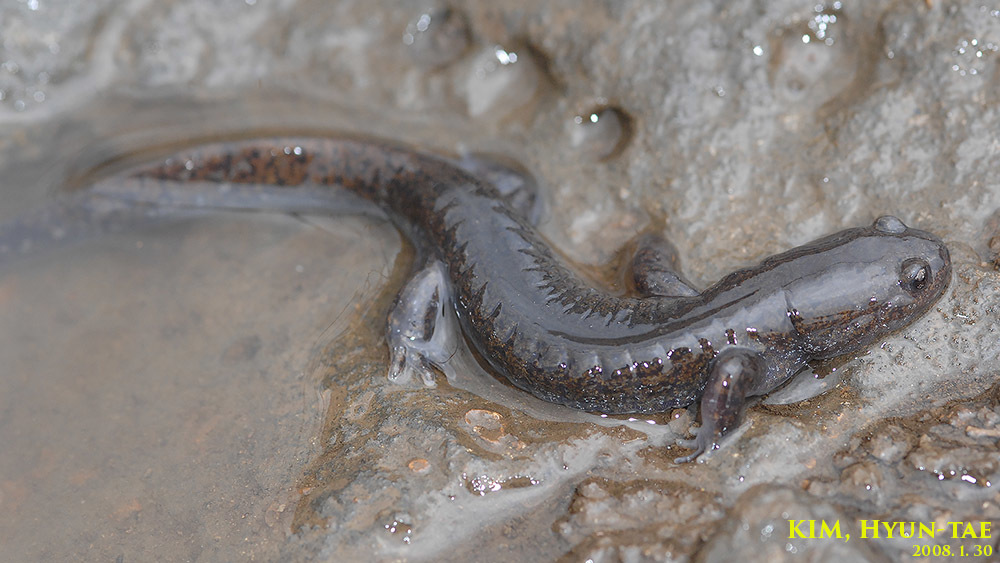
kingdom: Animalia
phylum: Chordata
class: Amphibia
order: Caudata
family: Hynobiidae
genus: Hynobius
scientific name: Hynobius quelpaertensis
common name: Cheju salamander
